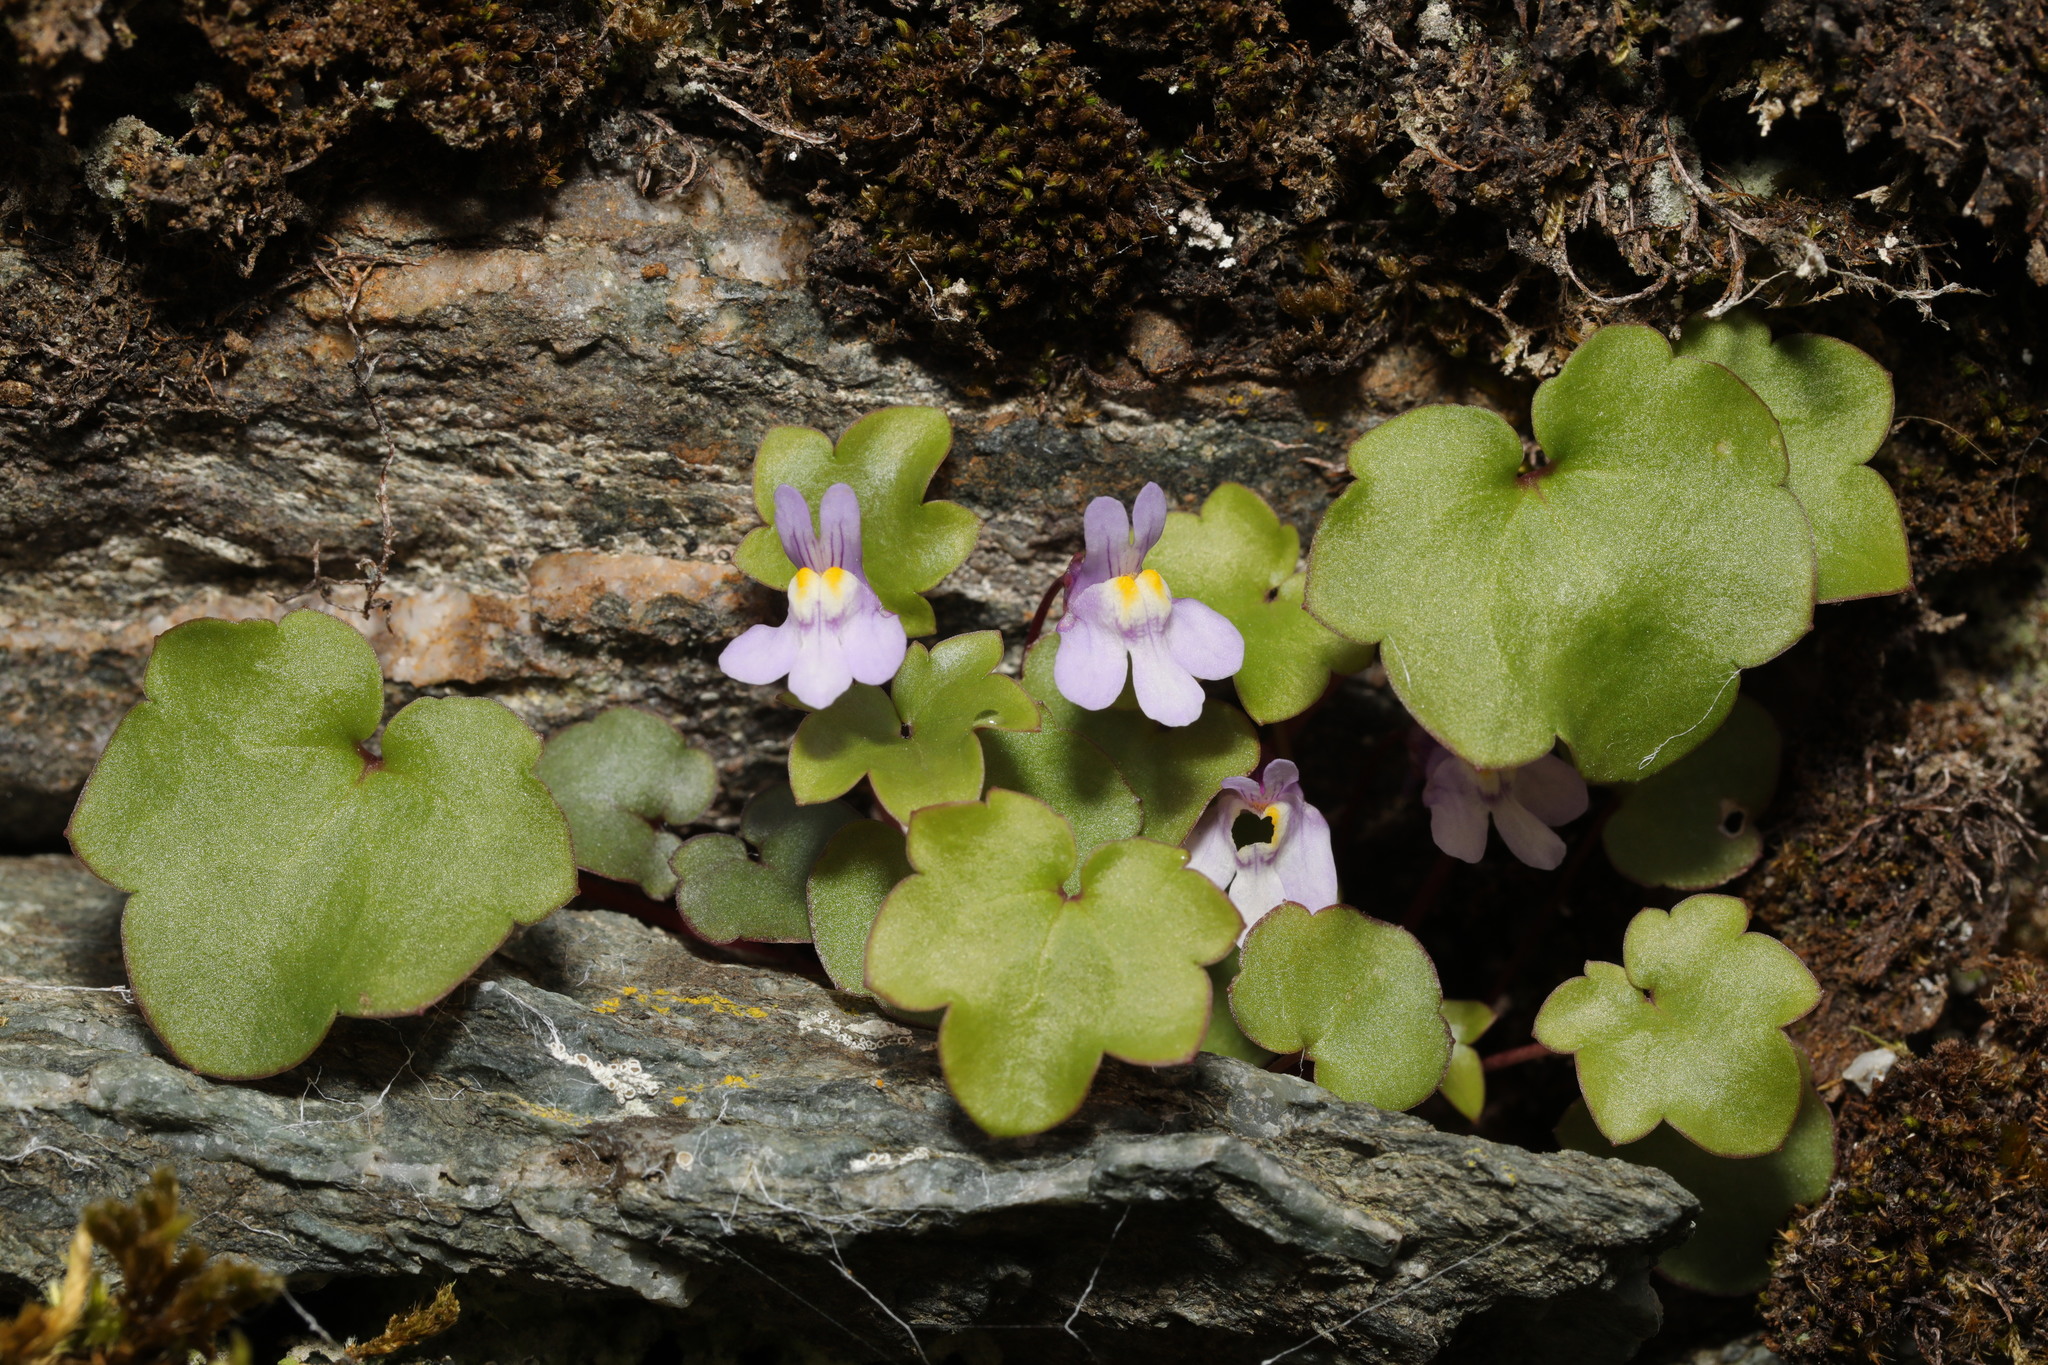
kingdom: Plantae
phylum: Tracheophyta
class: Magnoliopsida
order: Lamiales
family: Plantaginaceae
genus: Cymbalaria
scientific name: Cymbalaria muralis
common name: Ivy-leaved toadflax
